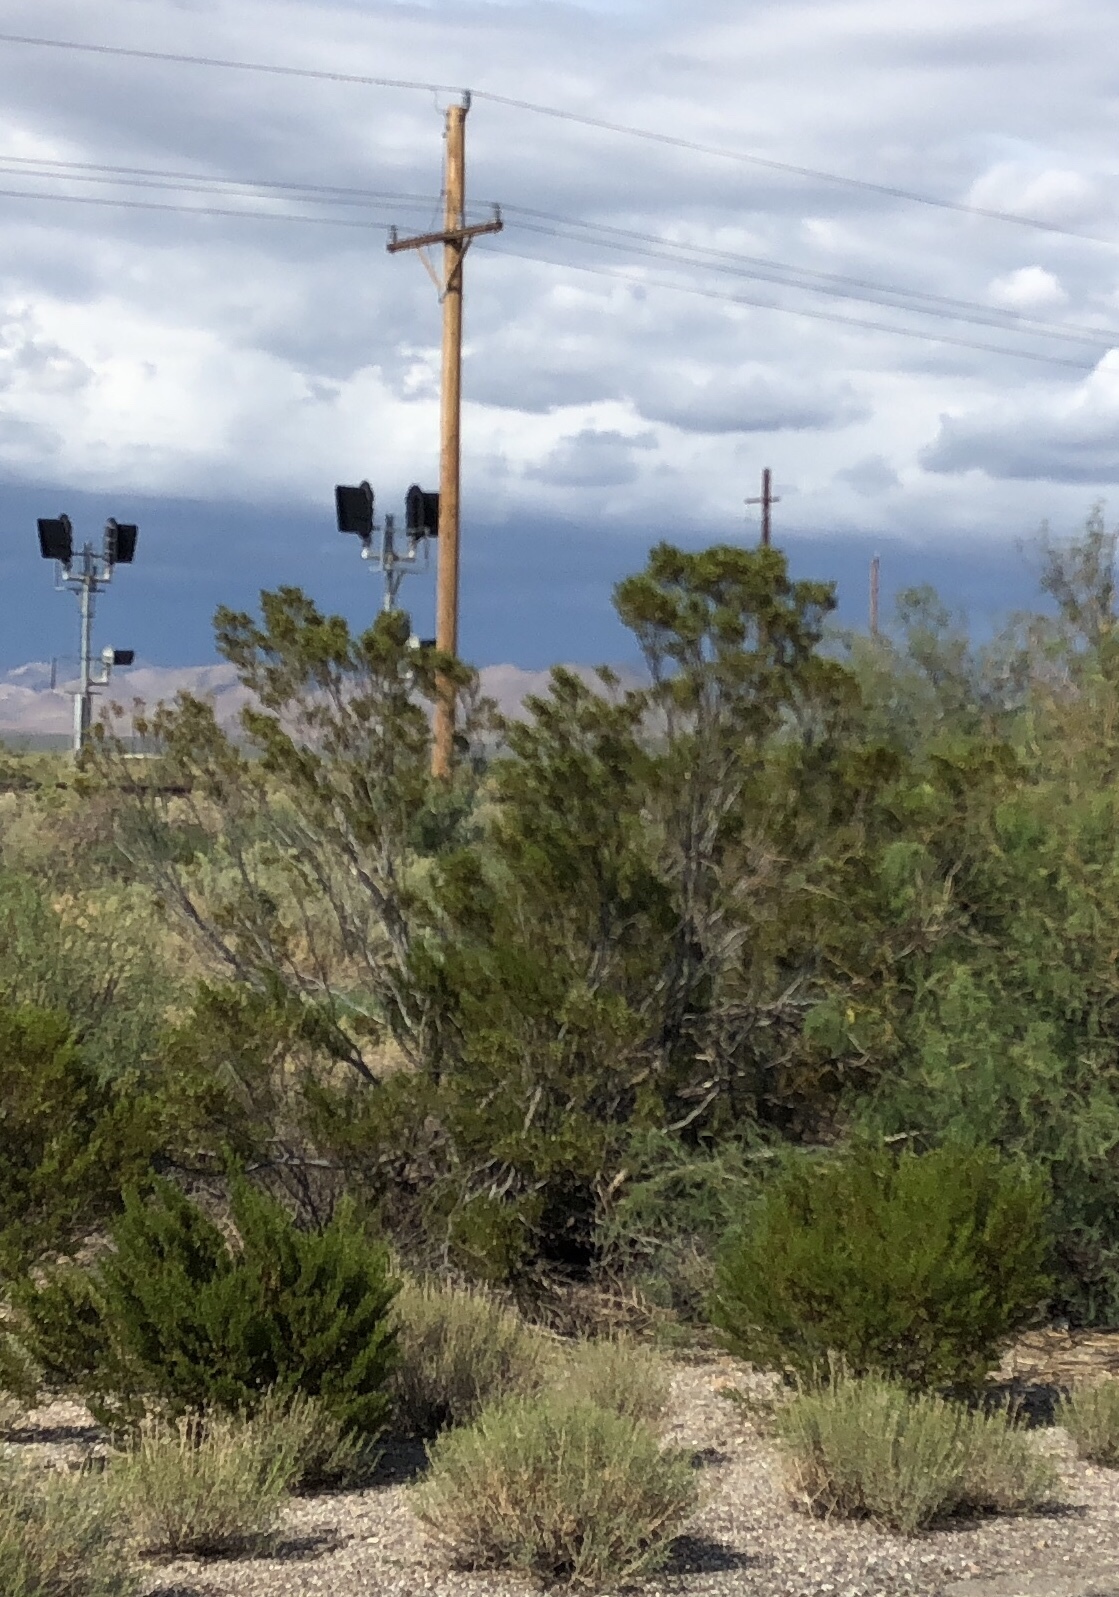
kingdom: Plantae
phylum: Tracheophyta
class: Magnoliopsida
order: Zygophyllales
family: Zygophyllaceae
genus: Larrea
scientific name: Larrea tridentata
